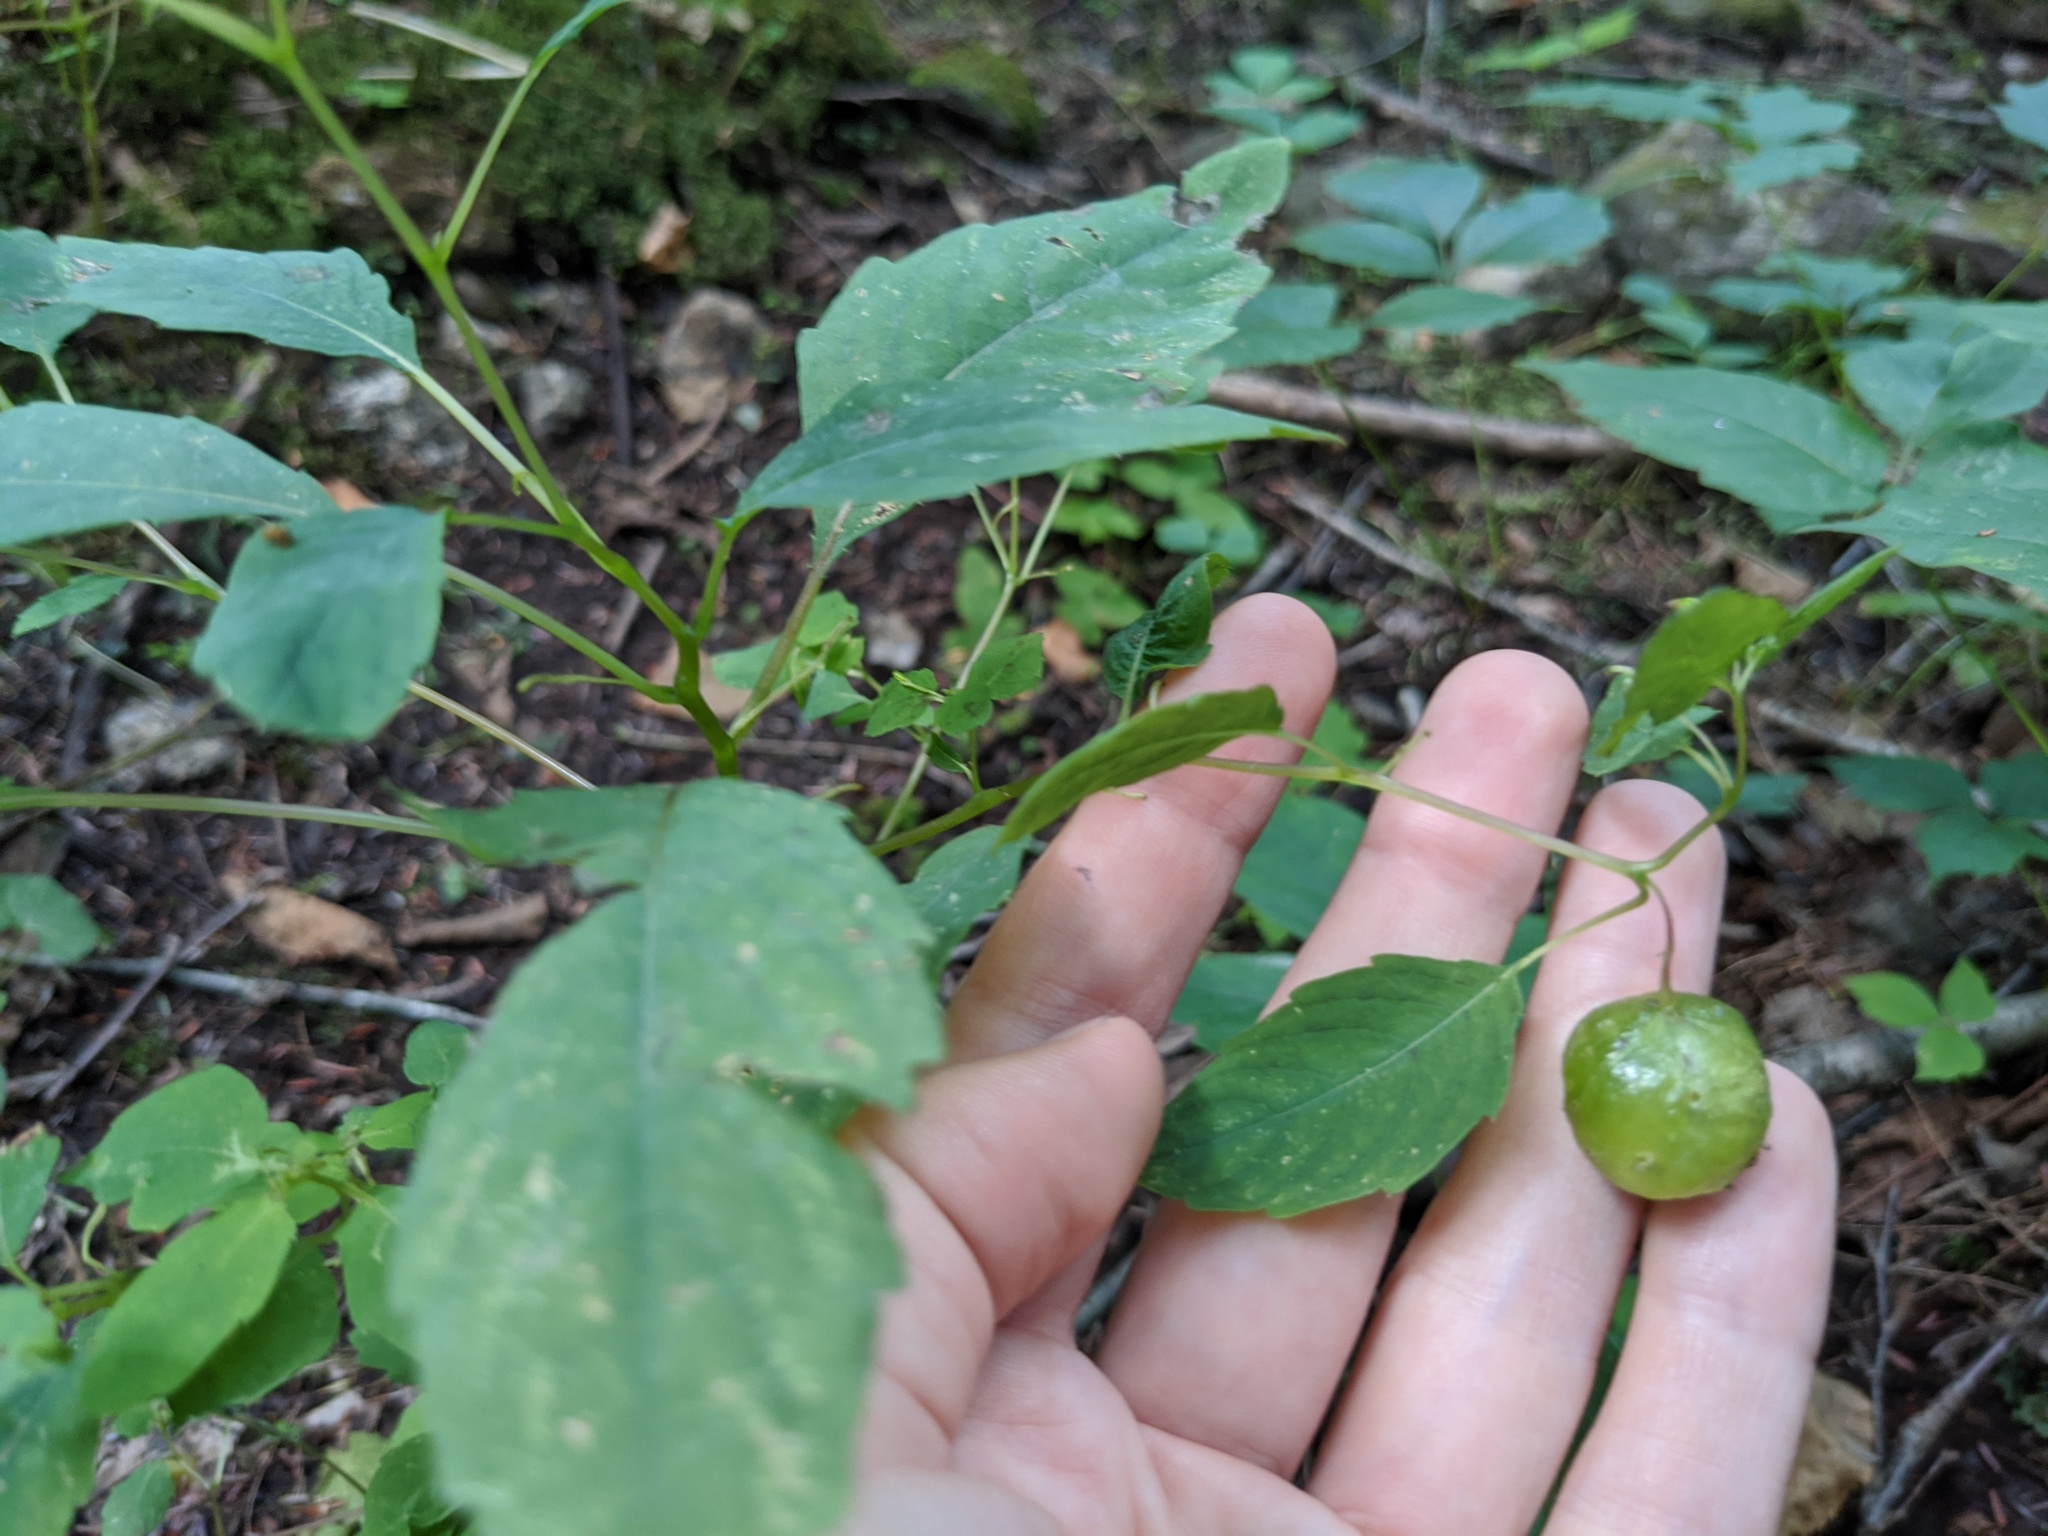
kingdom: Plantae
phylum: Tracheophyta
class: Magnoliopsida
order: Ericales
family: Balsaminaceae
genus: Impatiens
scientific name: Impatiens capensis
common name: Orange balsam
